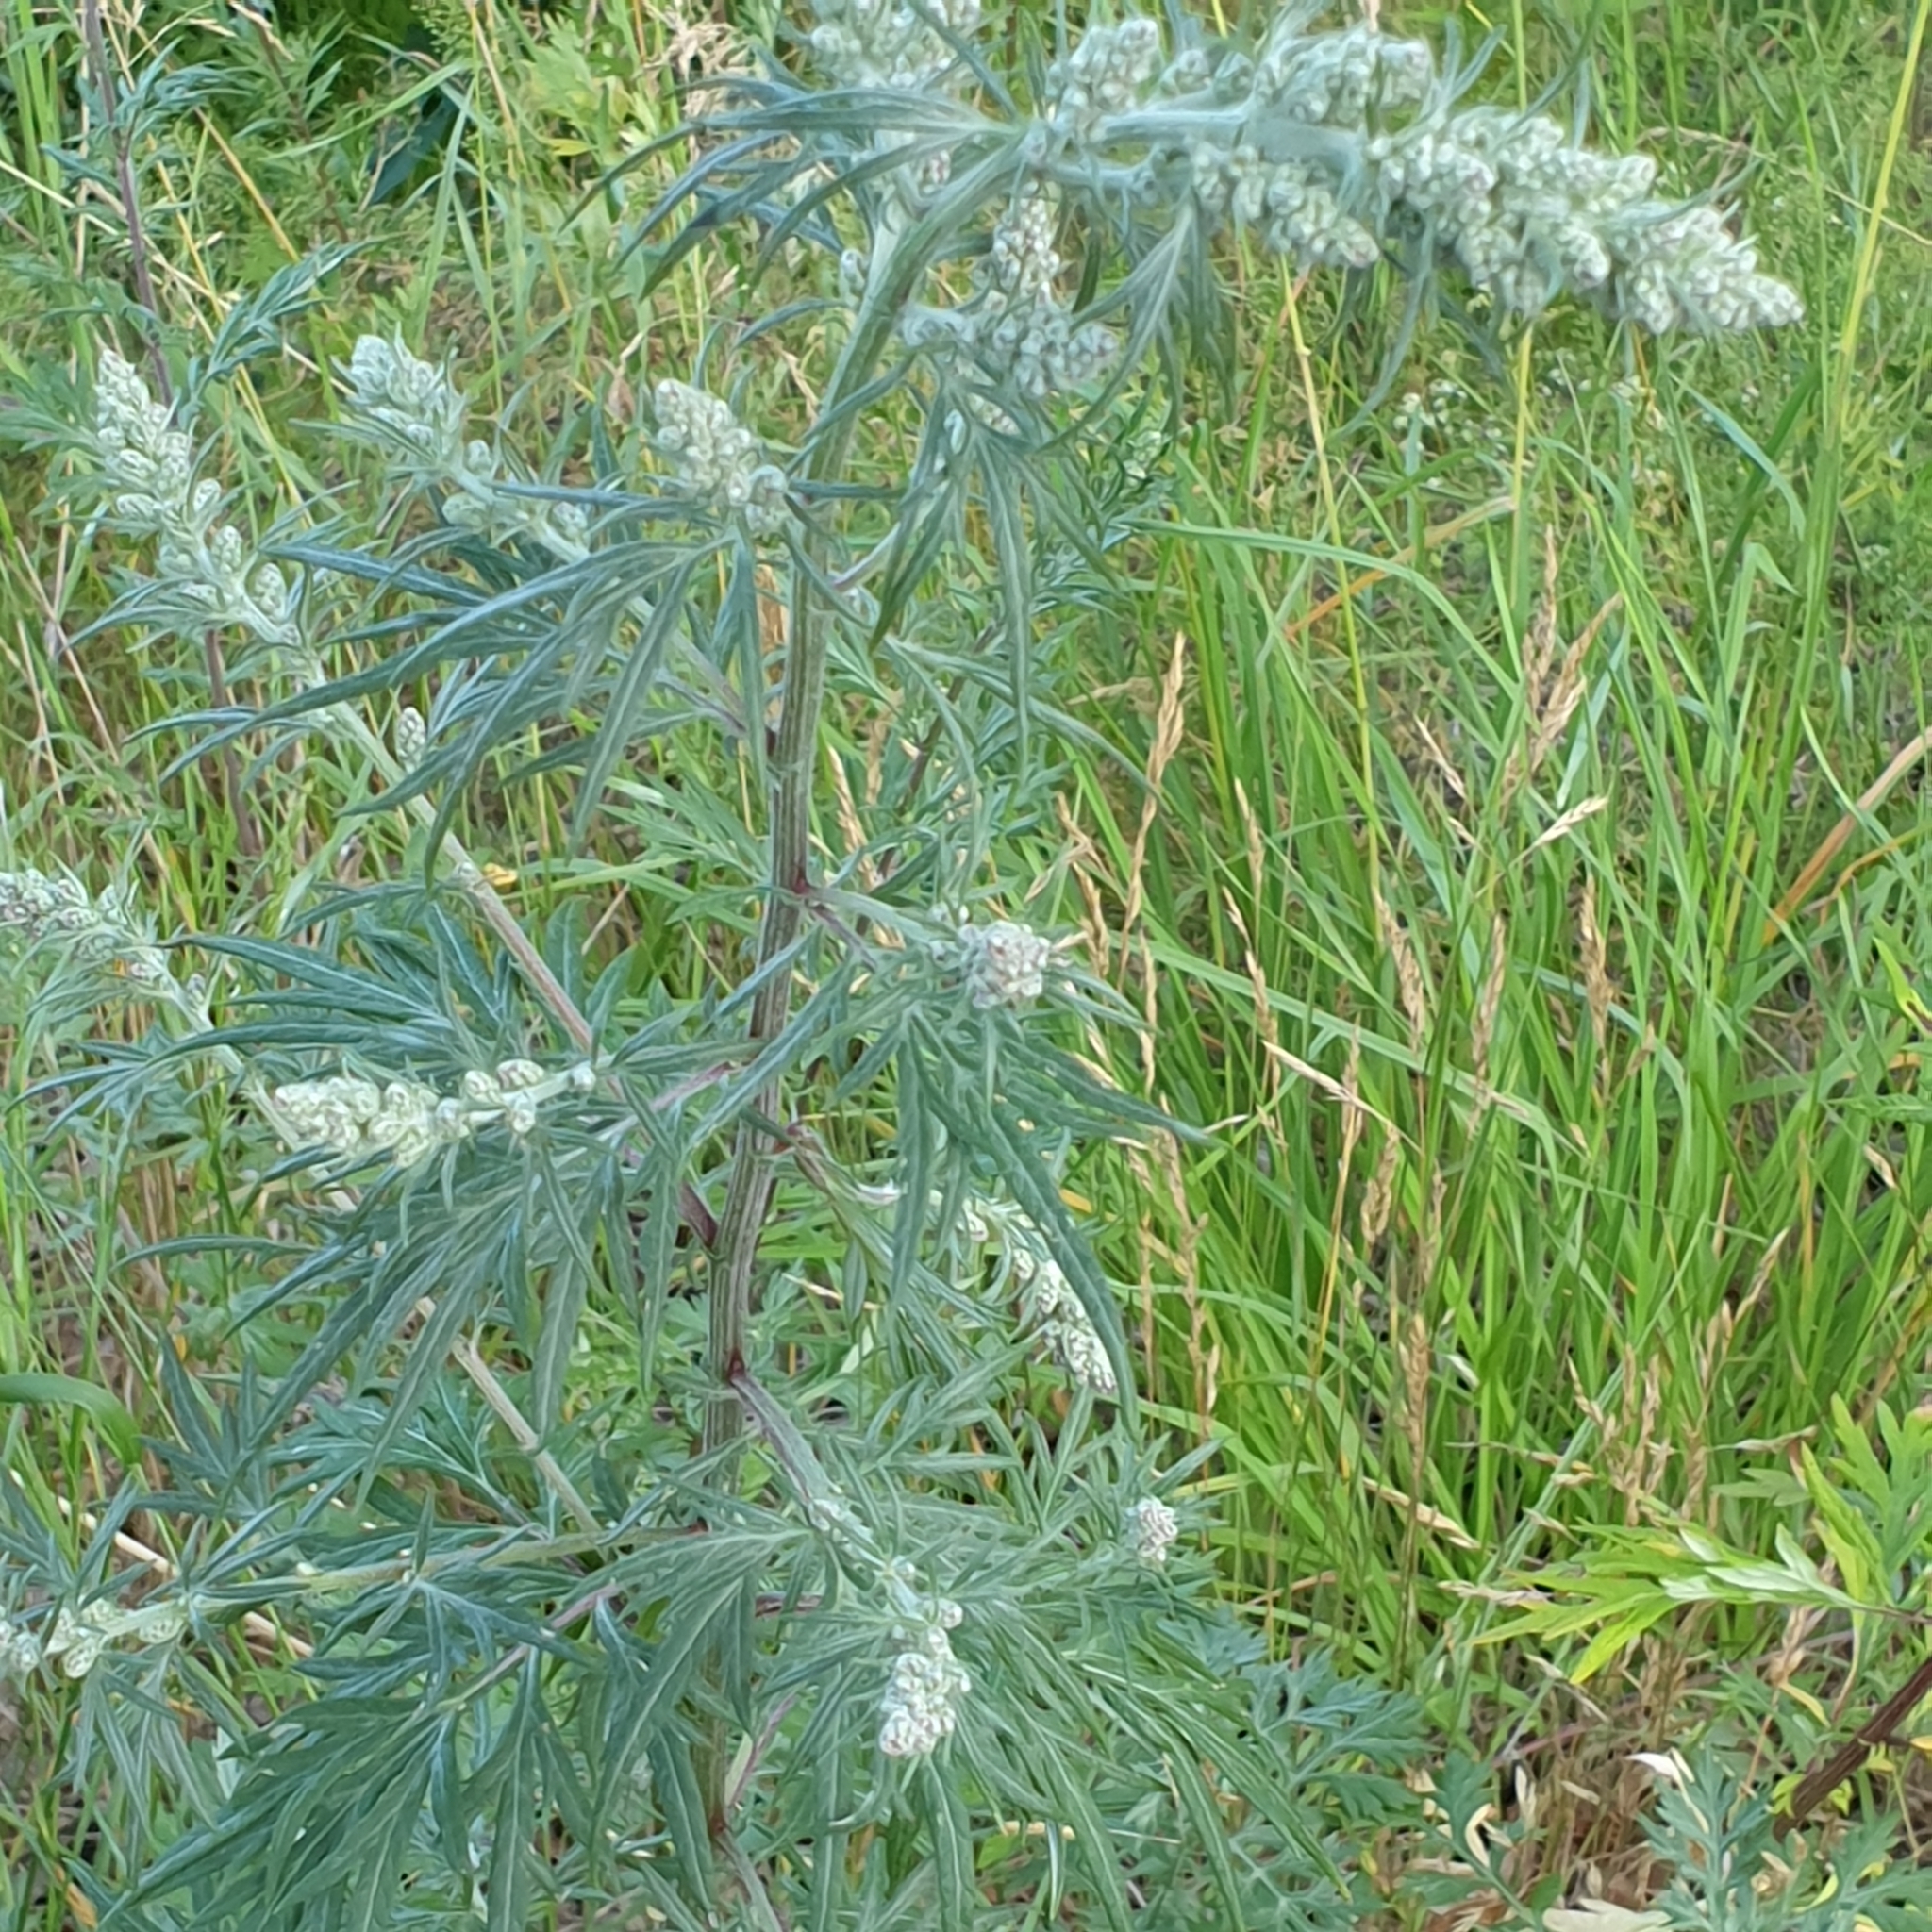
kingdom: Plantae
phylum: Tracheophyta
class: Magnoliopsida
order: Asterales
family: Asteraceae
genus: Artemisia
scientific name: Artemisia vulgaris
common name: Mugwort
